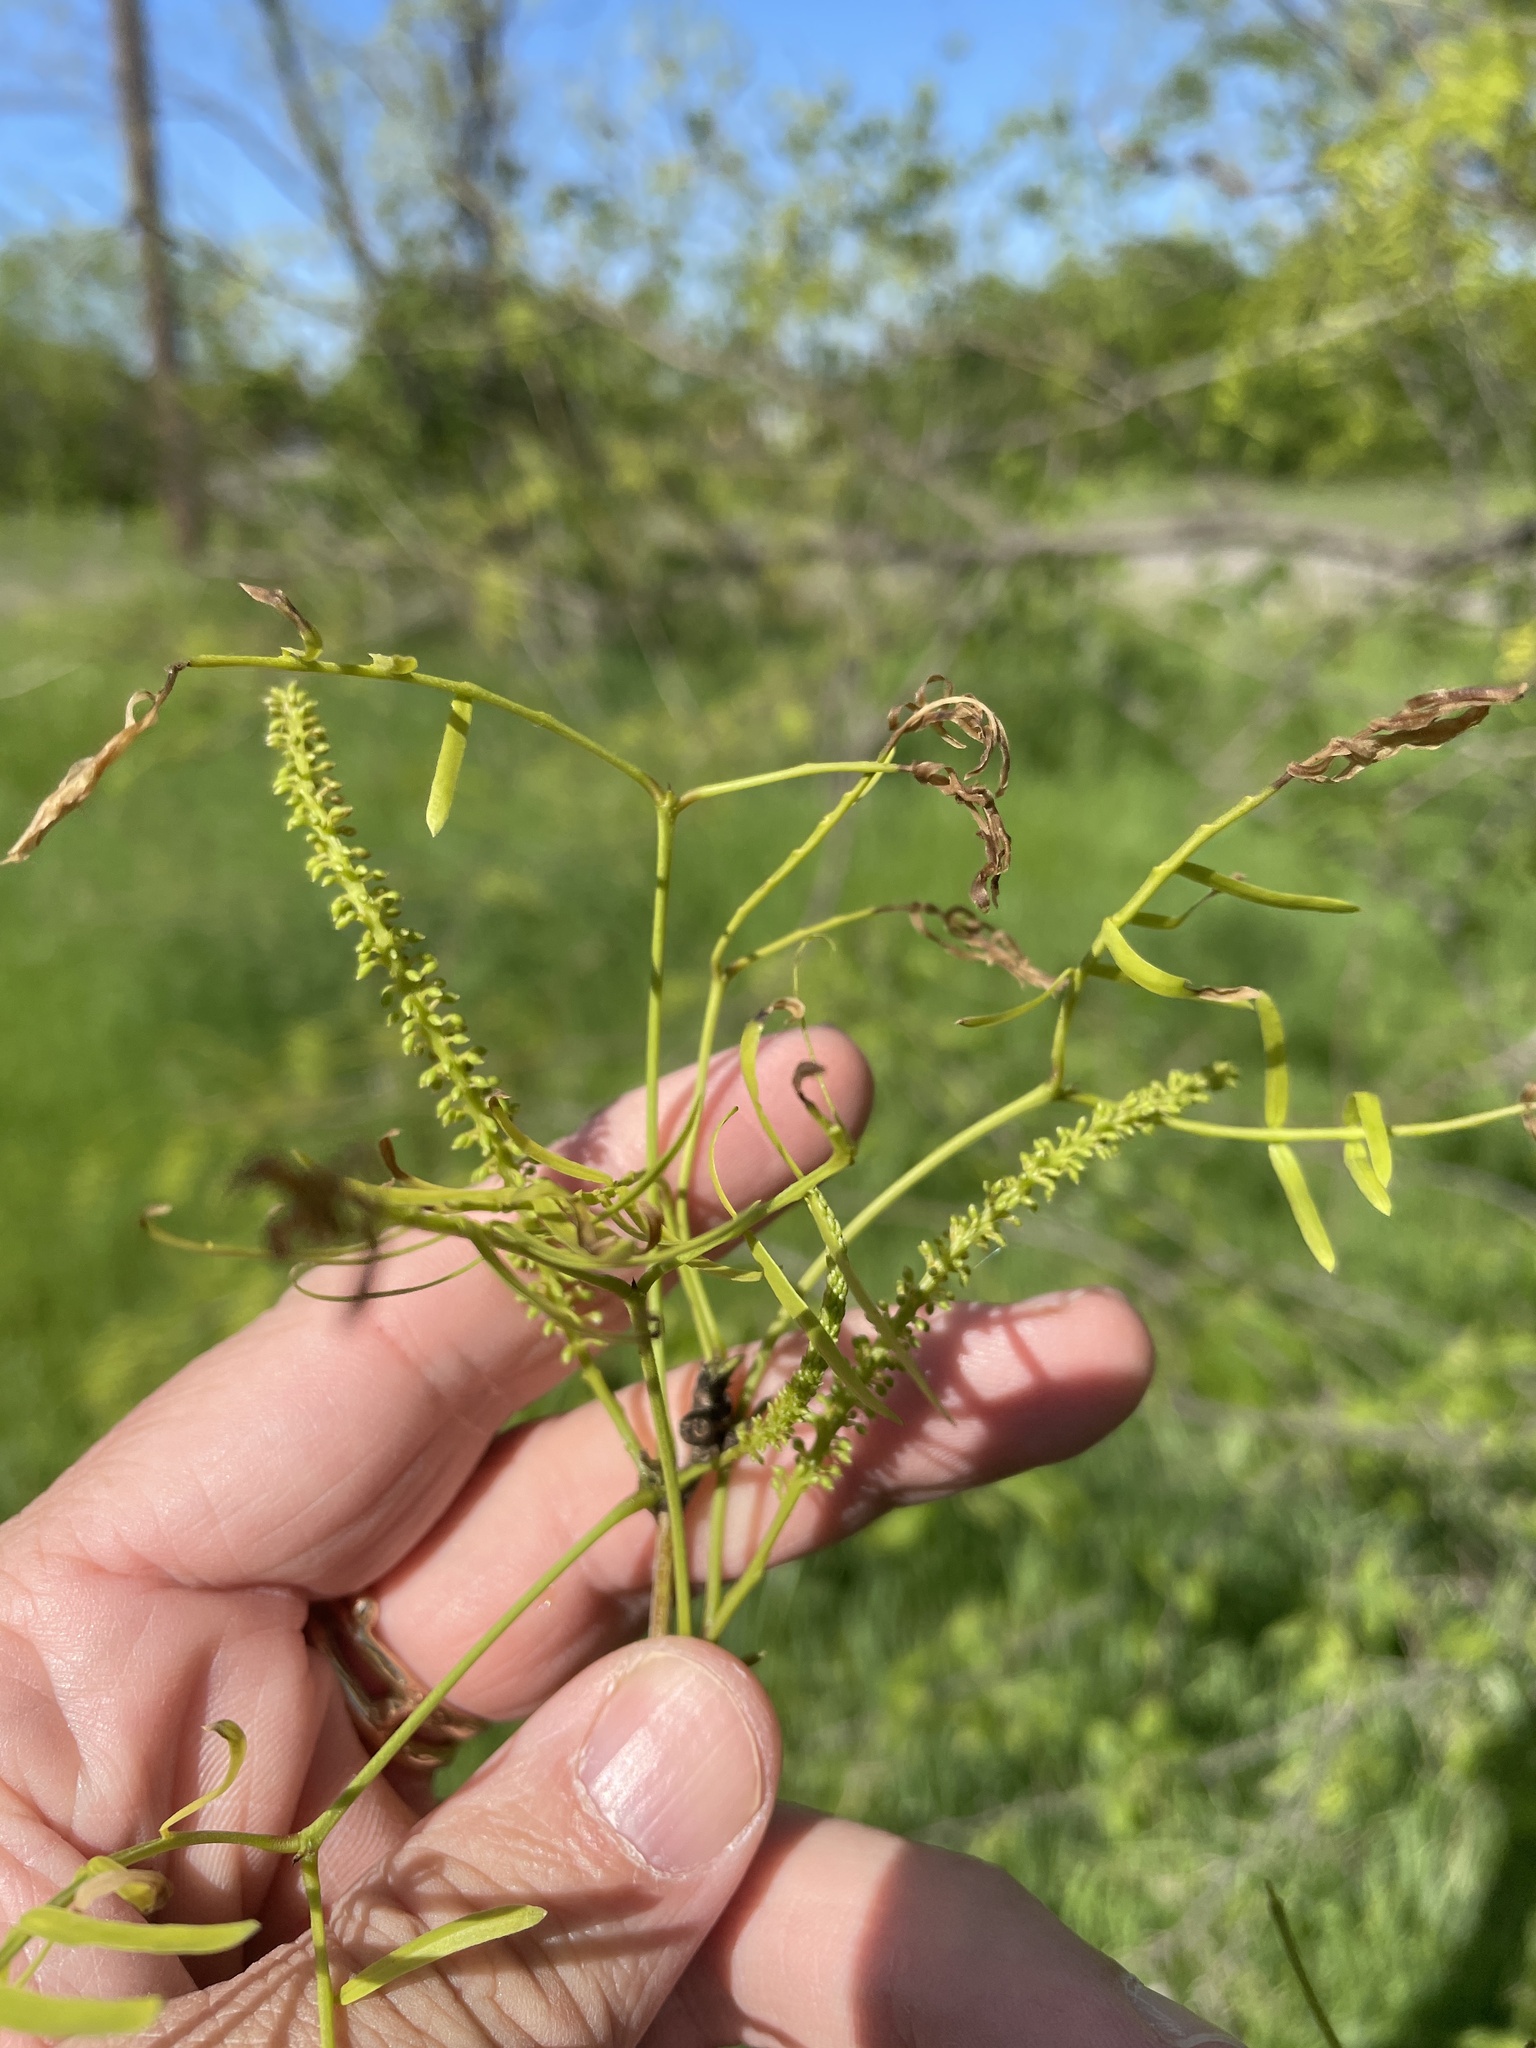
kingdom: Plantae
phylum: Tracheophyta
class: Magnoliopsida
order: Fabales
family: Fabaceae
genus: Prosopis
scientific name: Prosopis glandulosa
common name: Honey mesquite
